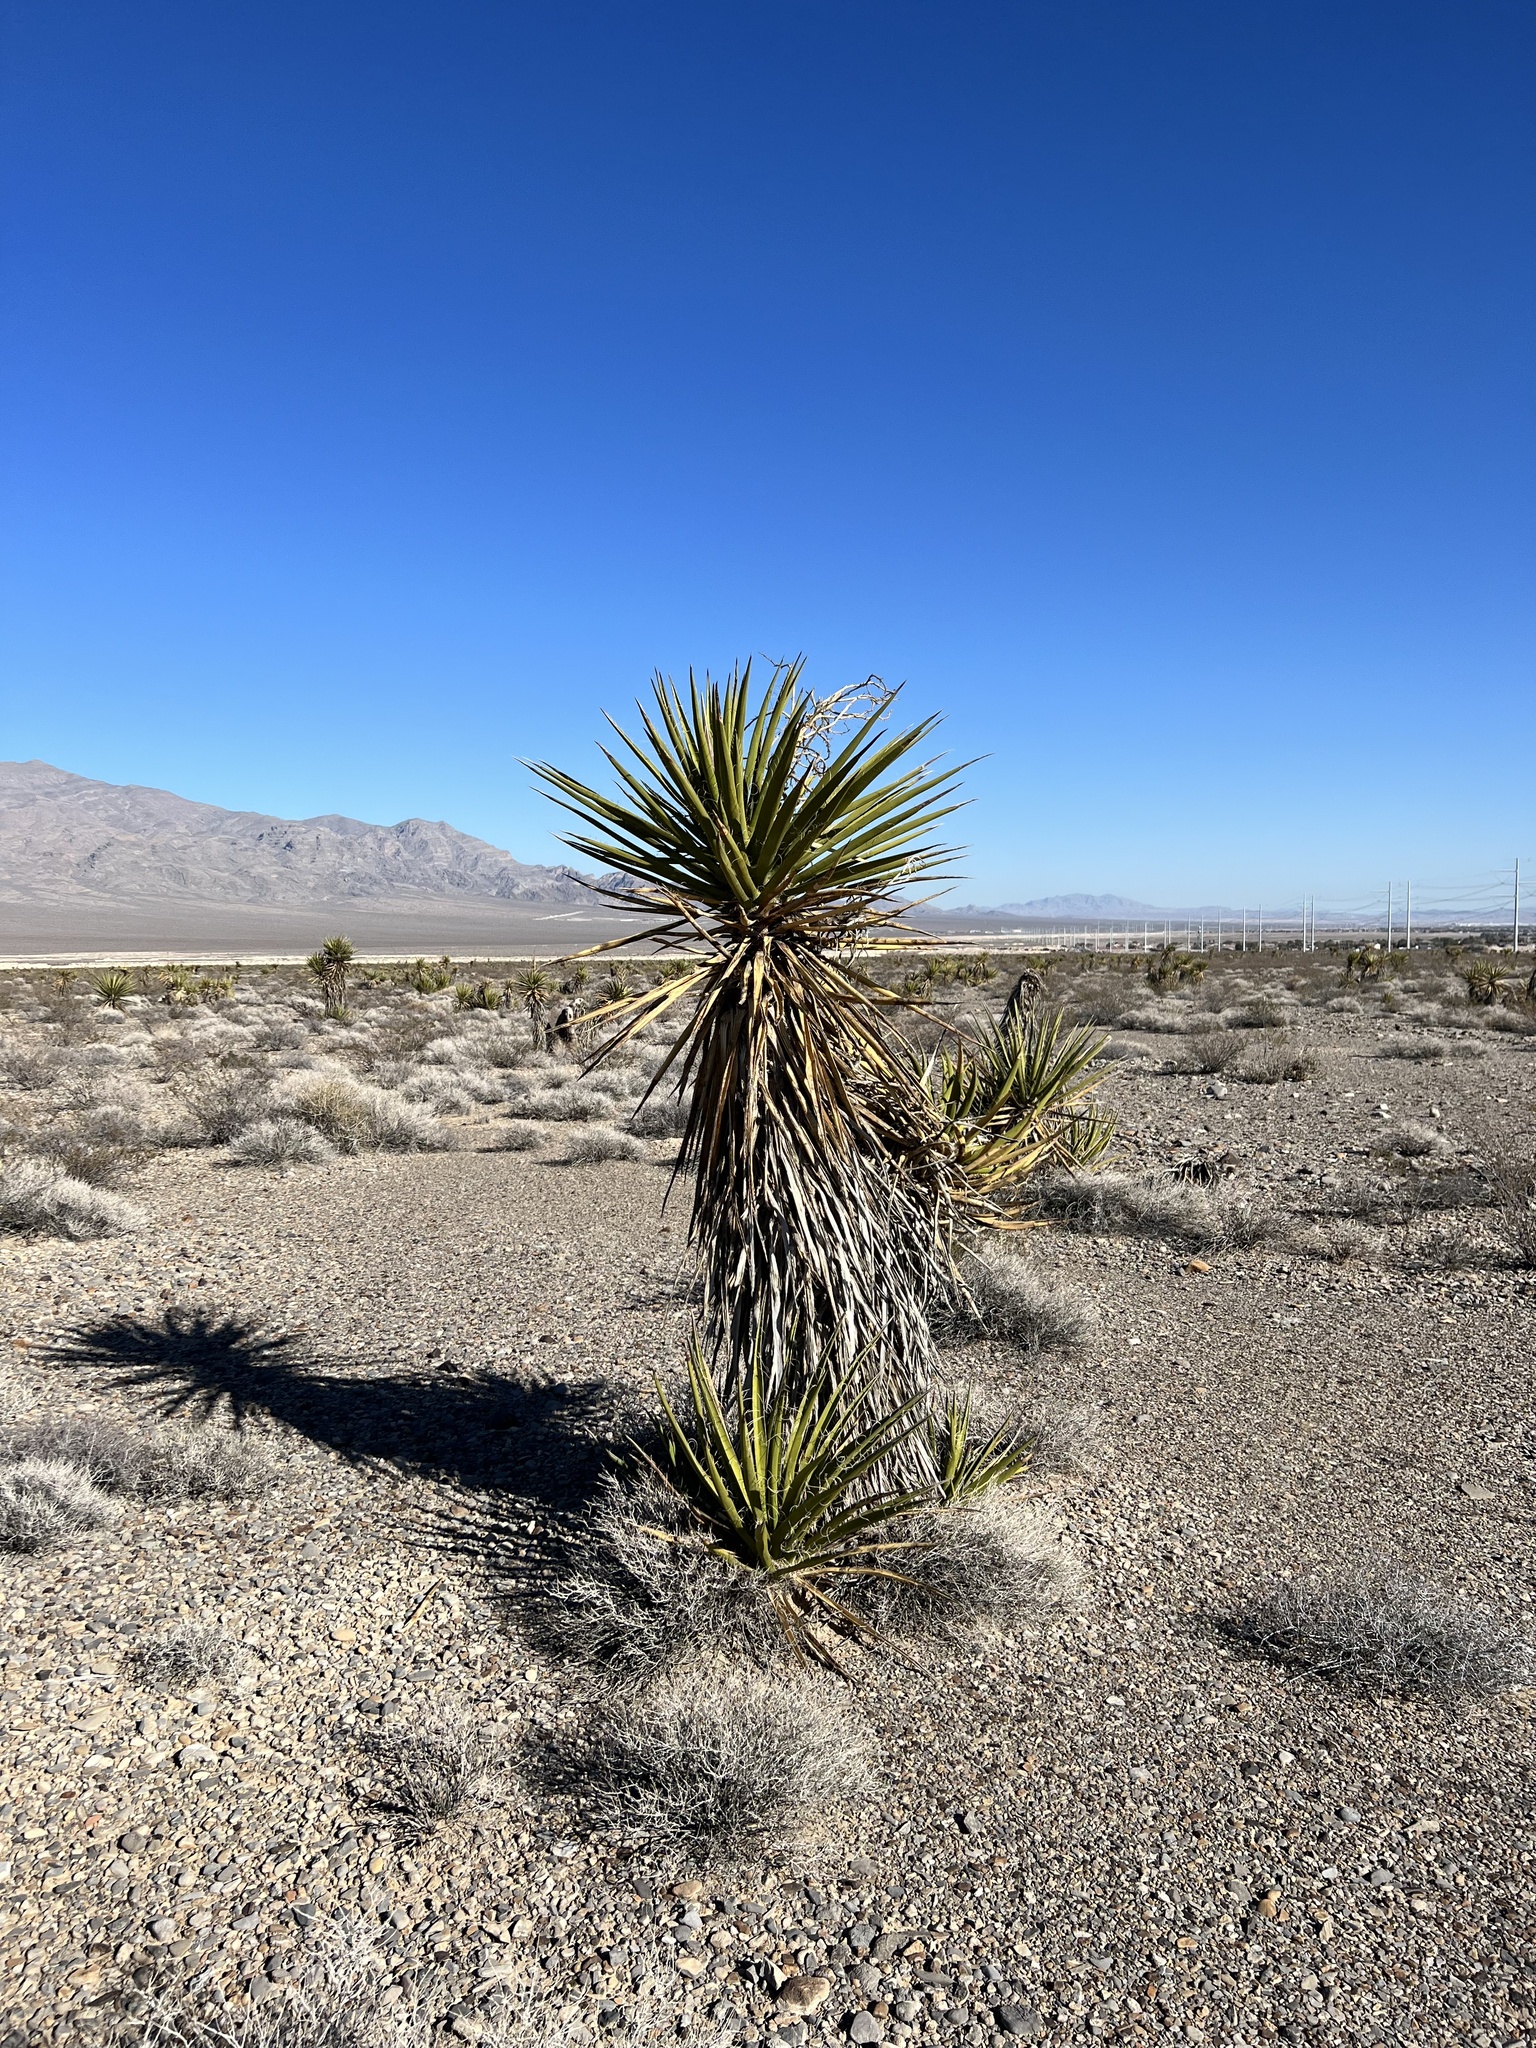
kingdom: Plantae
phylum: Tracheophyta
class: Liliopsida
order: Asparagales
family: Asparagaceae
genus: Yucca
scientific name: Yucca schidigera
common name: Mojave yucca
